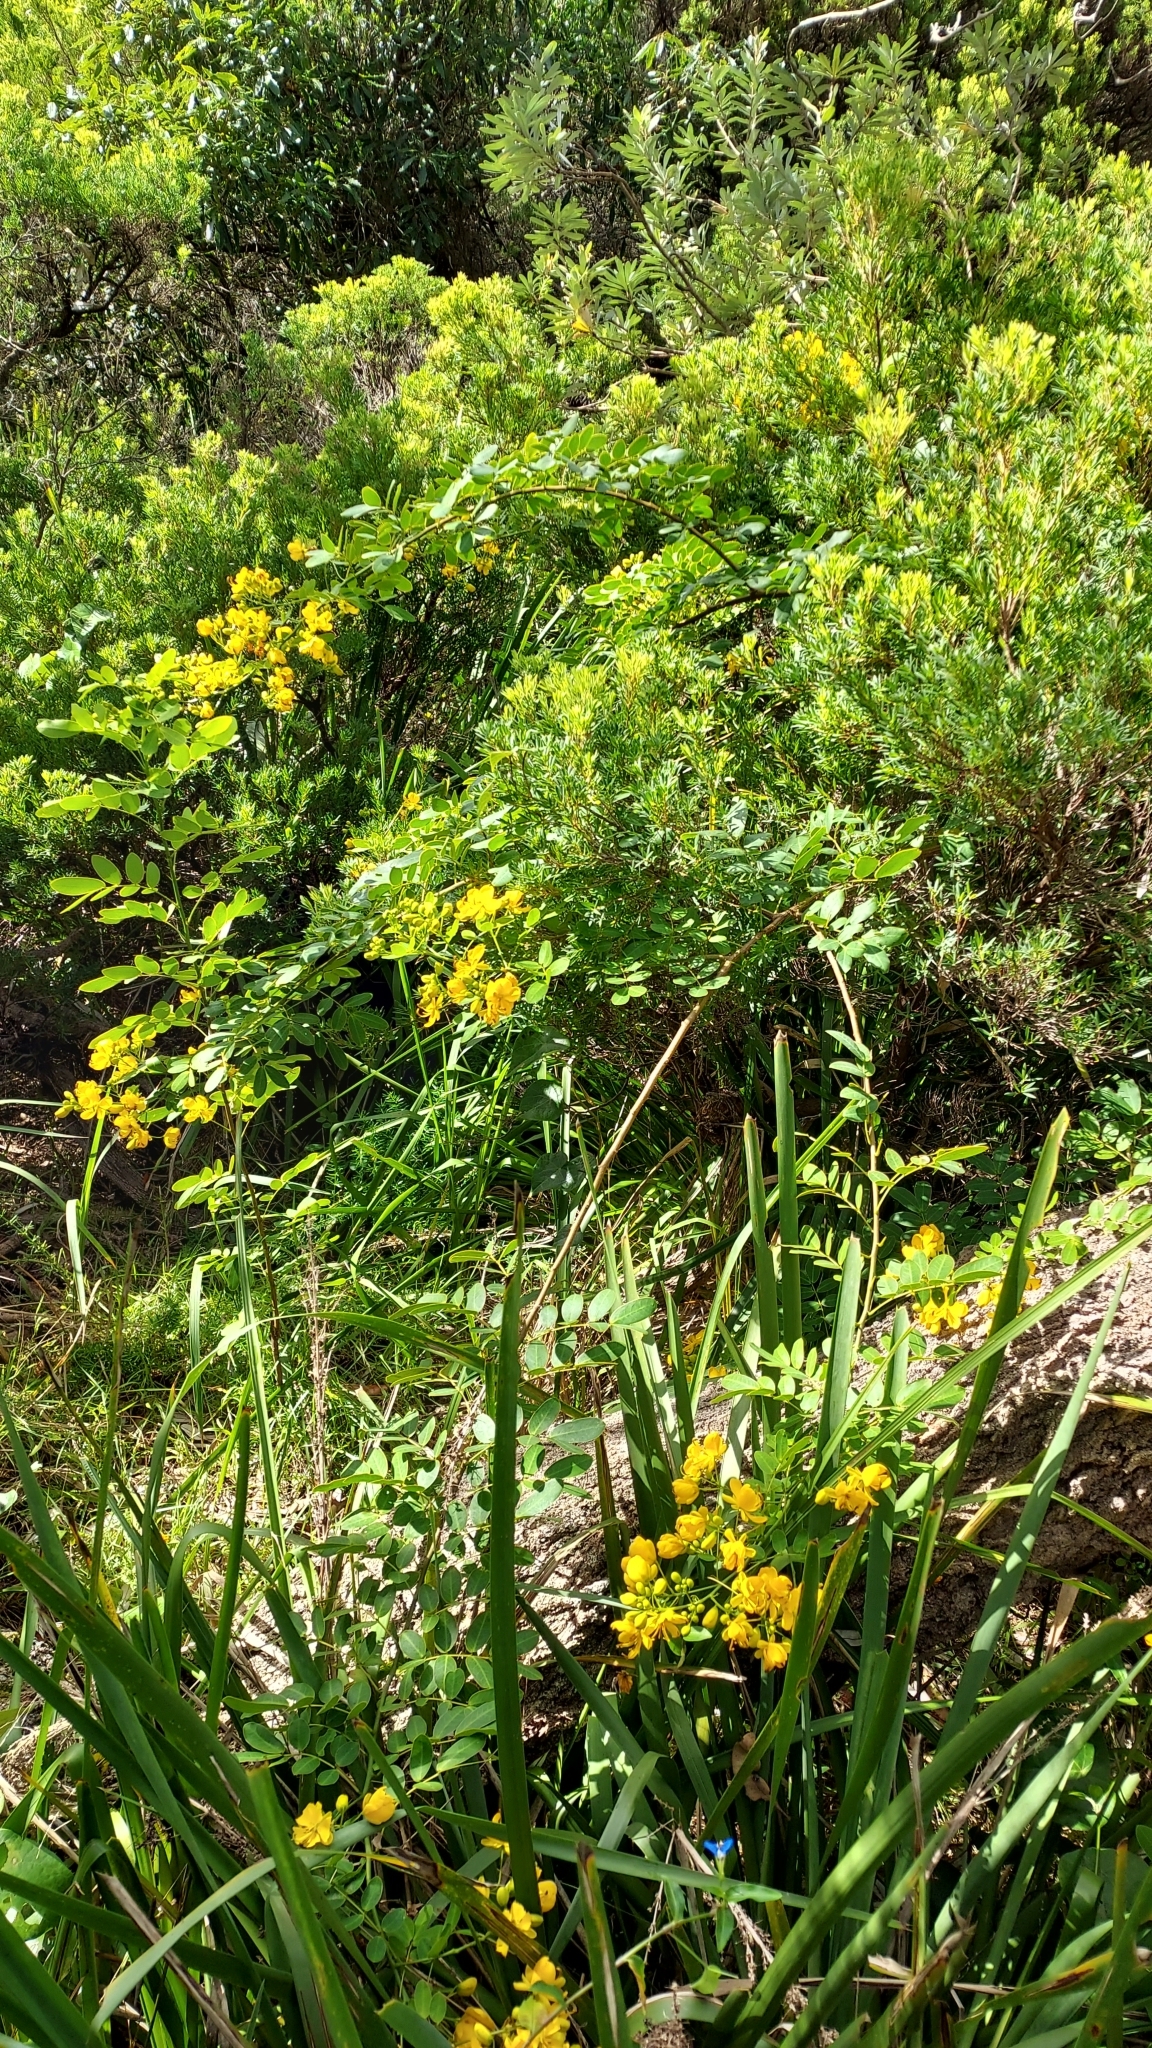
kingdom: Plantae
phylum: Tracheophyta
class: Magnoliopsida
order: Fabales
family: Fabaceae
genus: Senna
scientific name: Senna pendula
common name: Easter cassia
